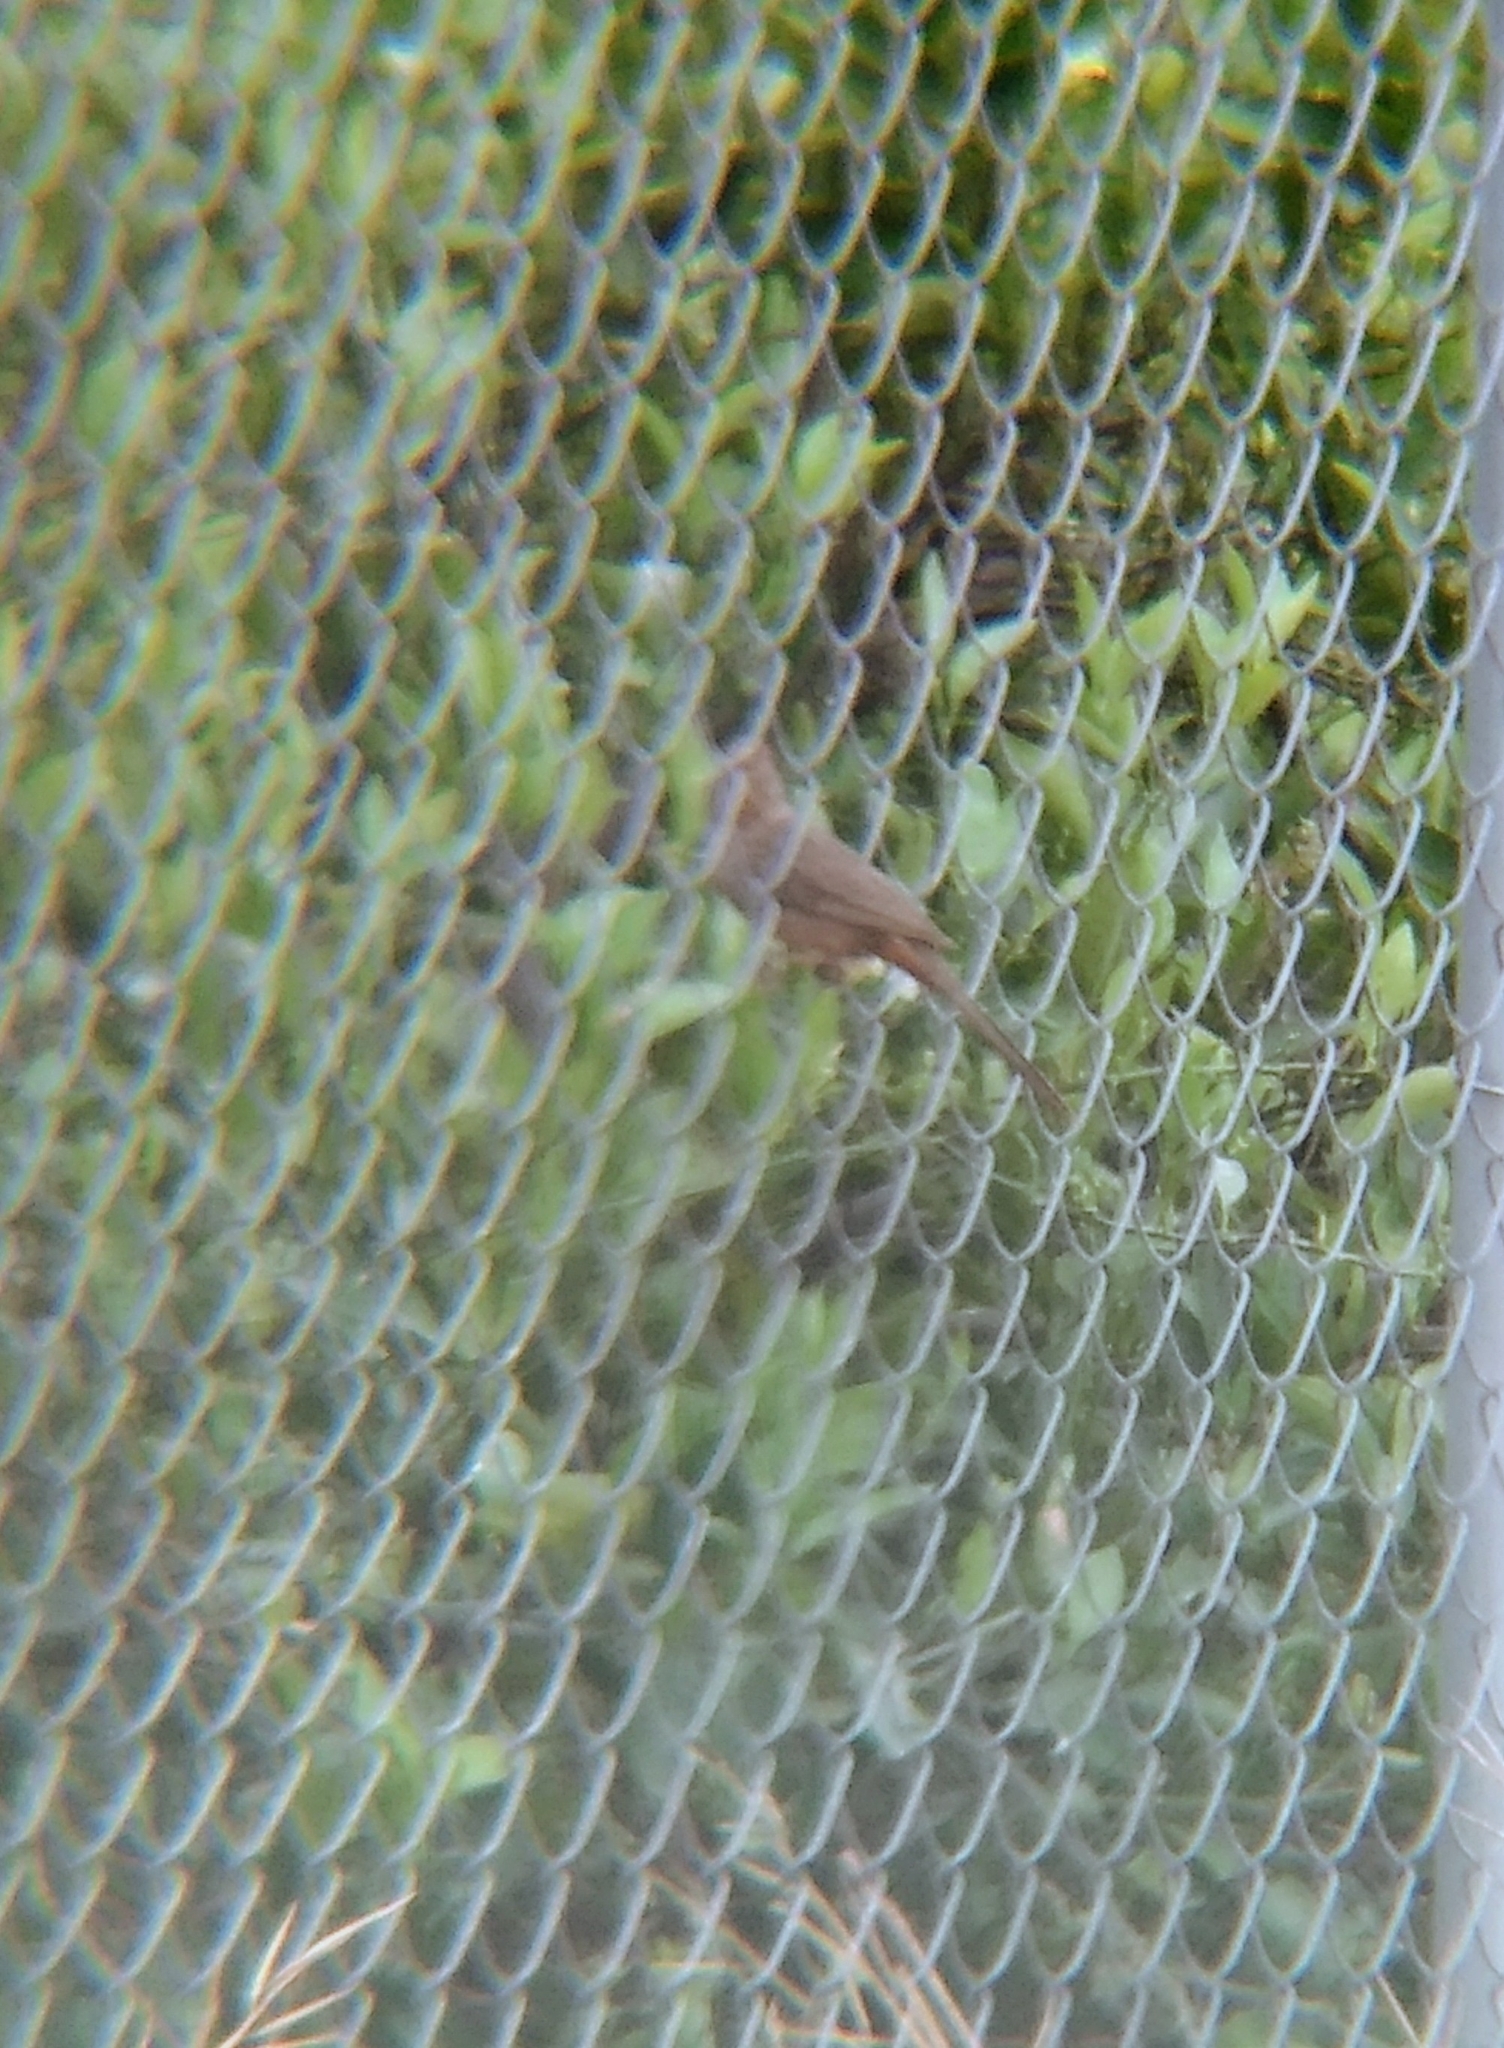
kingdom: Animalia
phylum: Chordata
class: Aves
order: Passeriformes
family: Passerellidae
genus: Melozone
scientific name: Melozone crissalis
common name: California towhee
